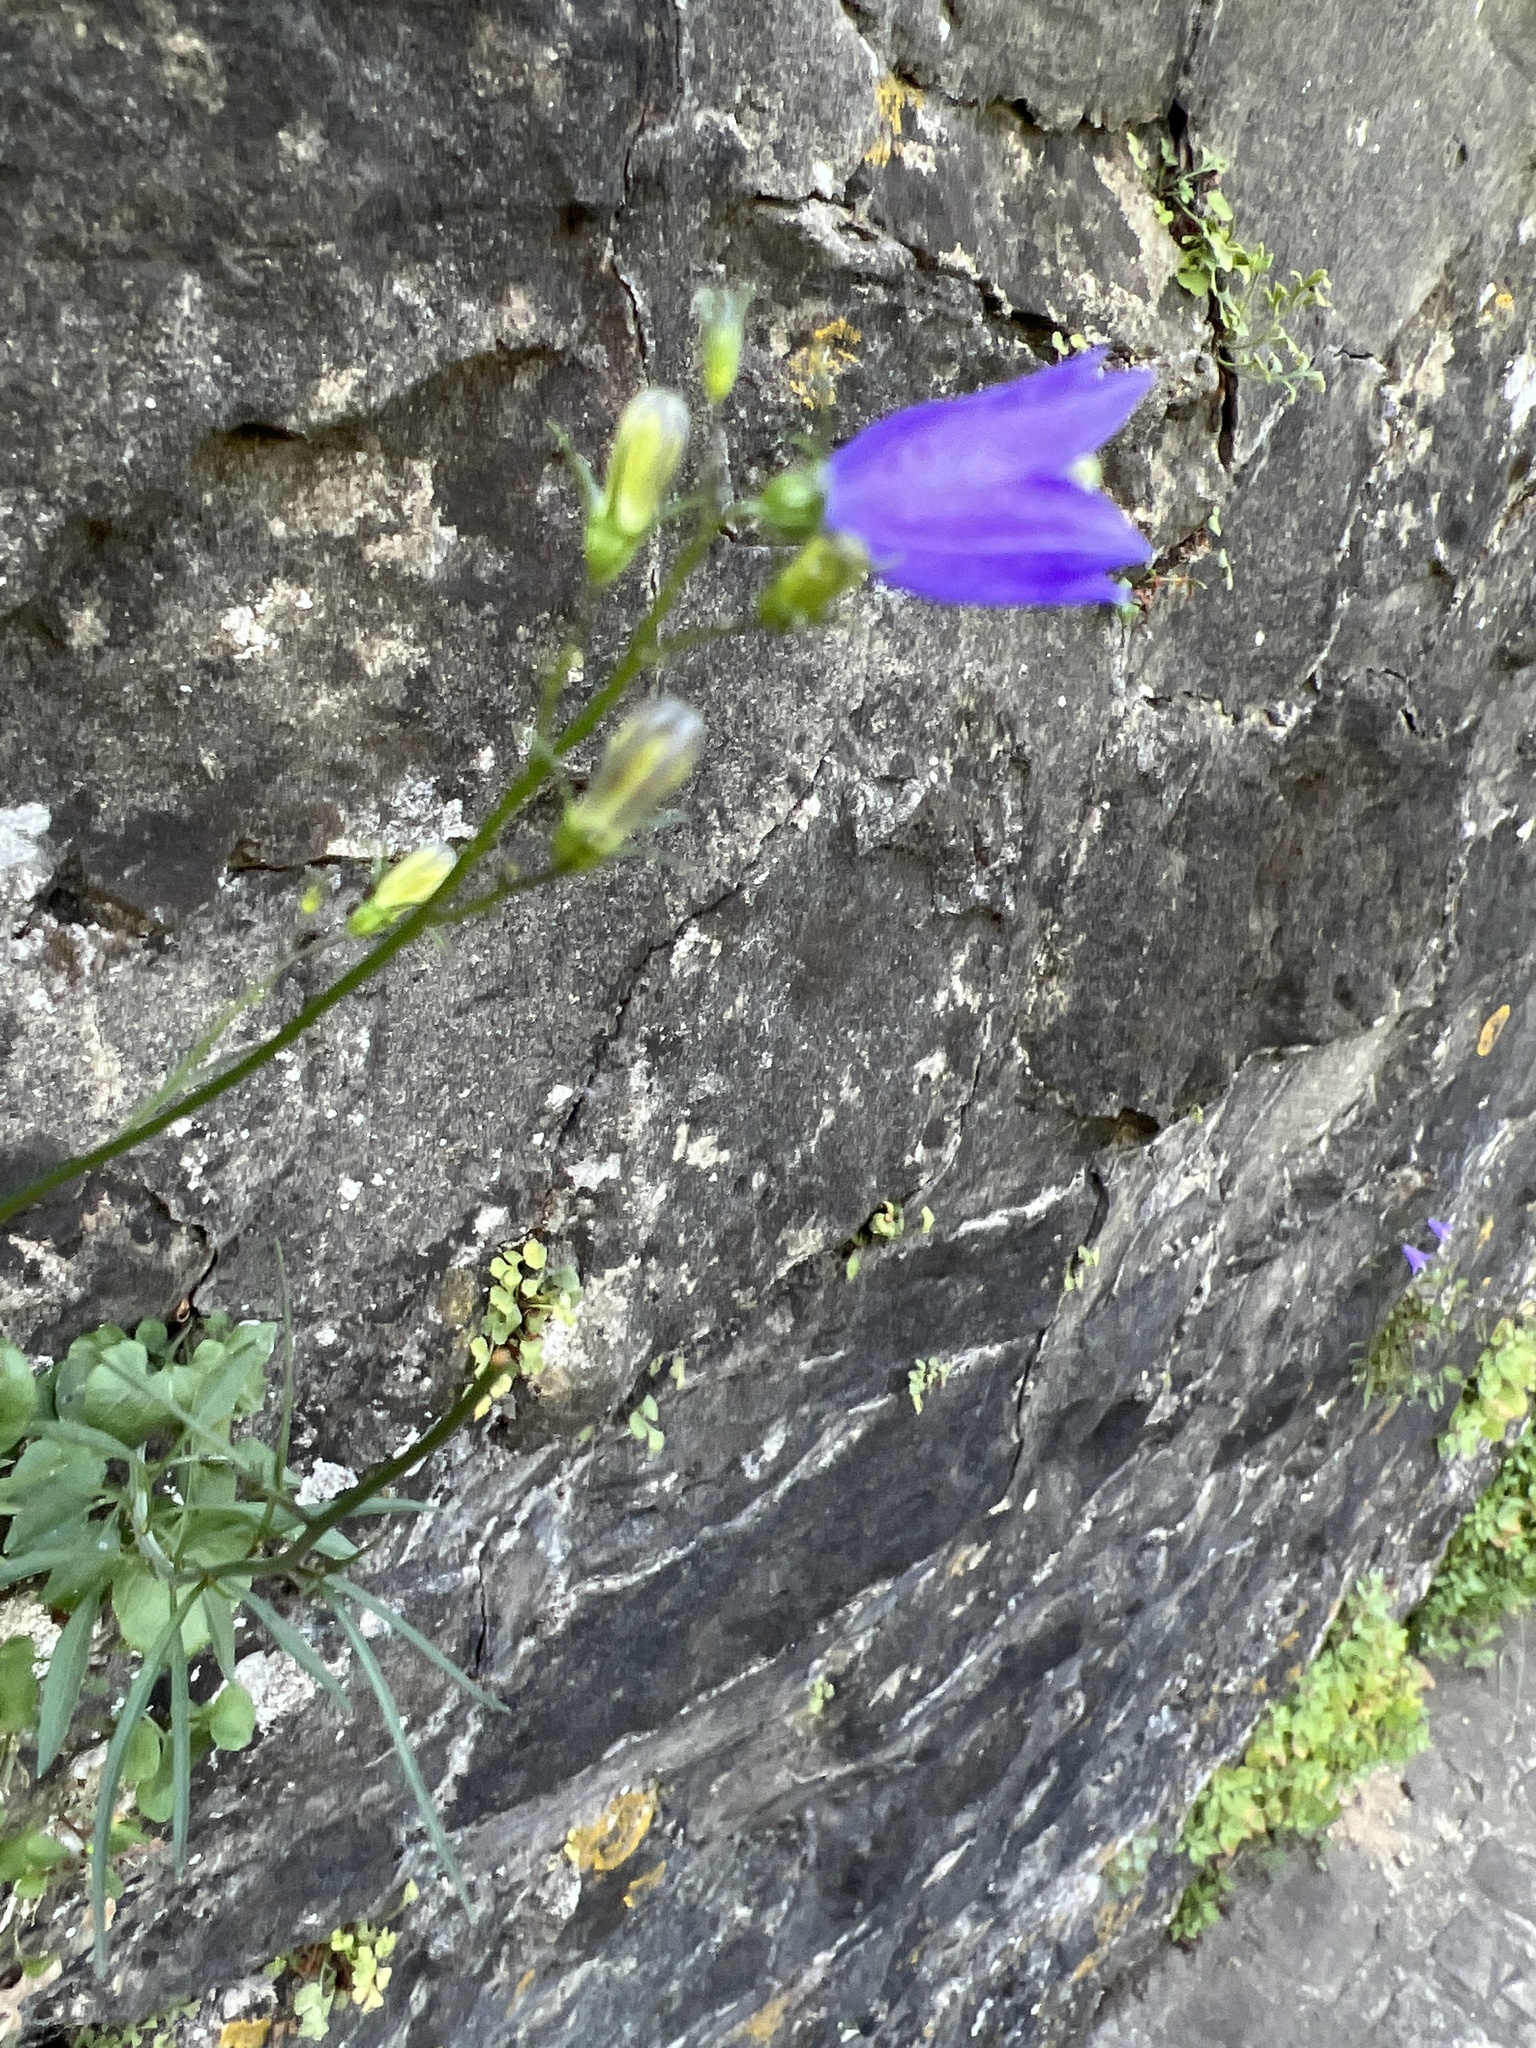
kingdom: Plantae
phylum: Tracheophyta
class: Magnoliopsida
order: Asterales
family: Campanulaceae
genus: Campanula
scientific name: Campanula rotundifolia
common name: Harebell
